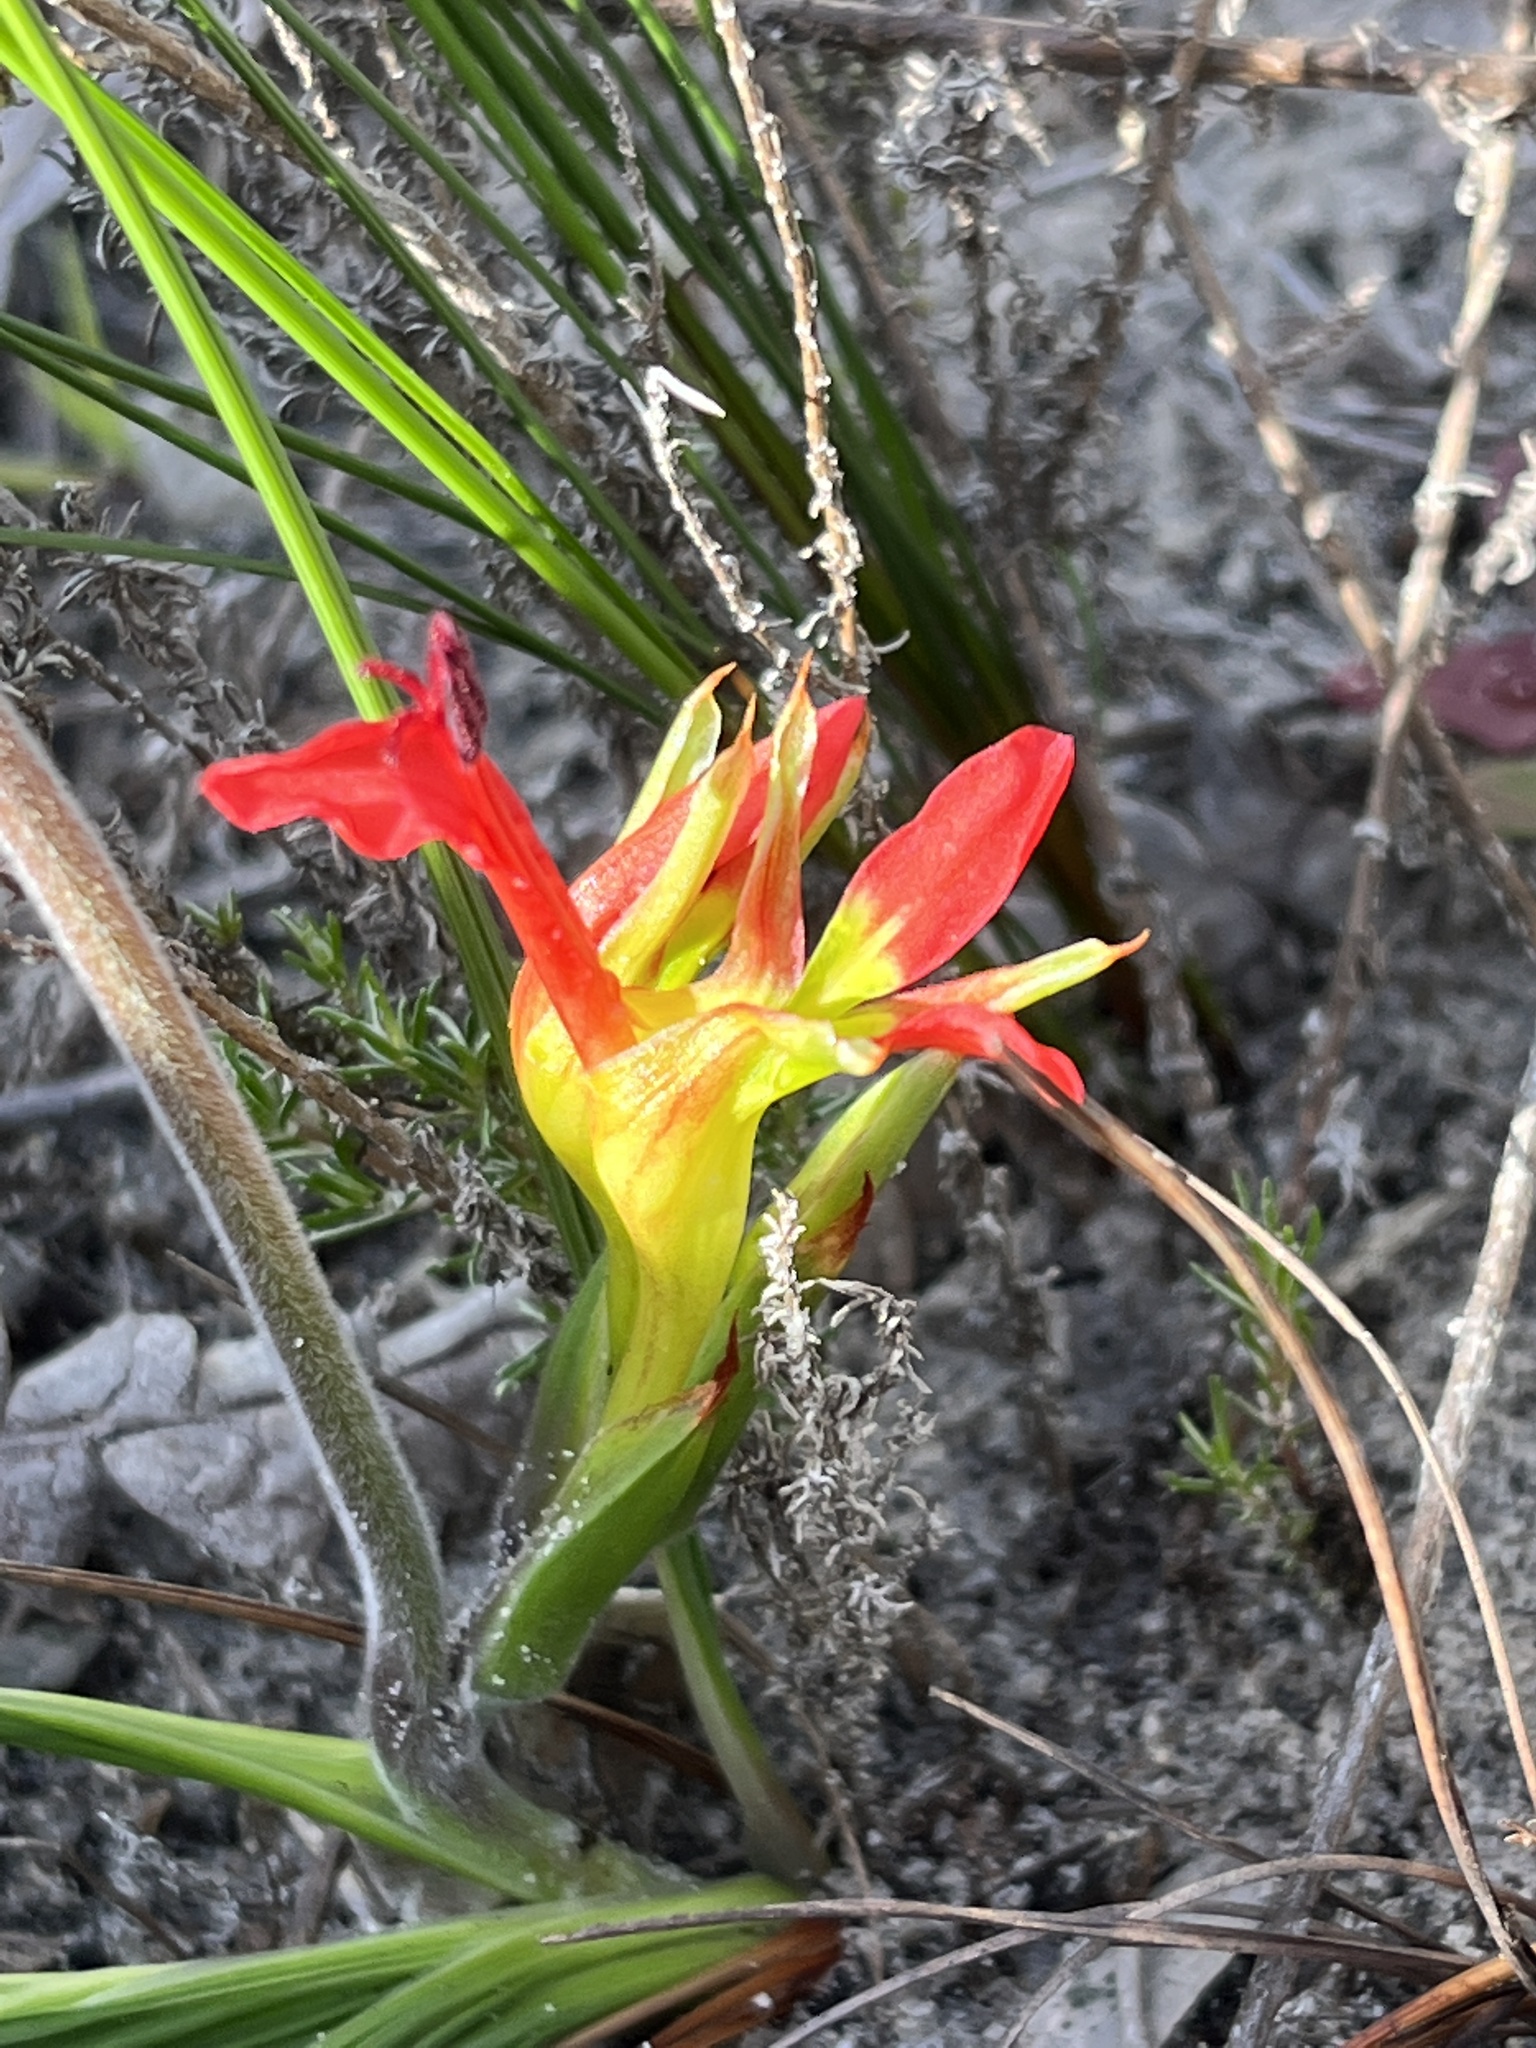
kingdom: Plantae
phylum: Tracheophyta
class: Liliopsida
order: Asparagales
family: Iridaceae
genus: Babiana
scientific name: Babiana ringens
